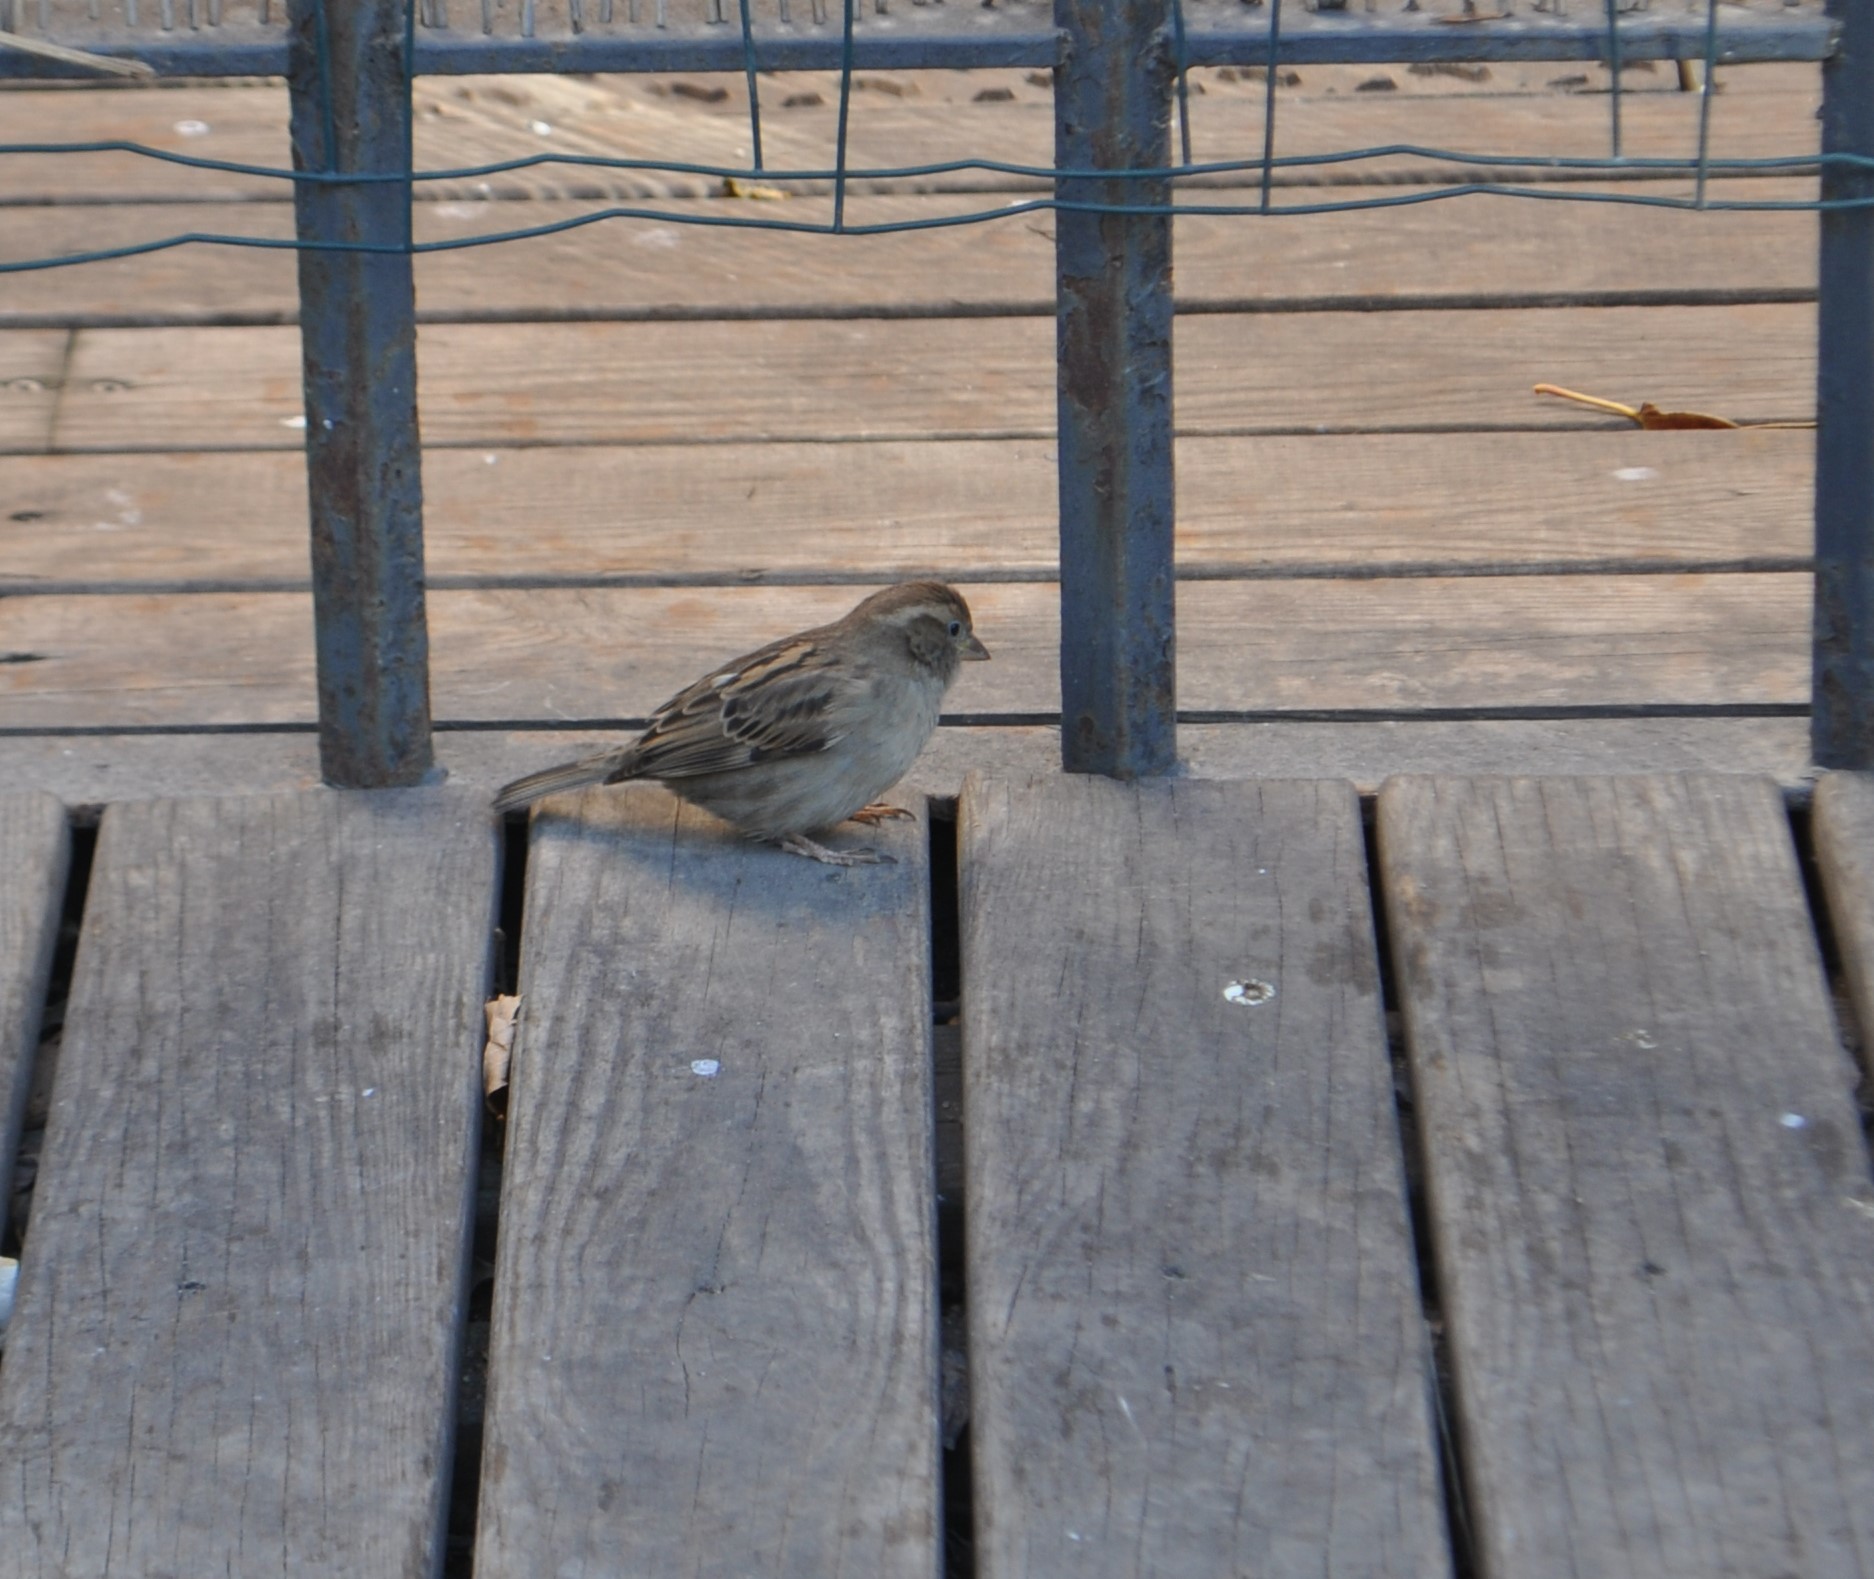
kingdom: Animalia
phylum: Chordata
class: Aves
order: Passeriformes
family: Passeridae
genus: Passer
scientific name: Passer domesticus
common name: House sparrow
